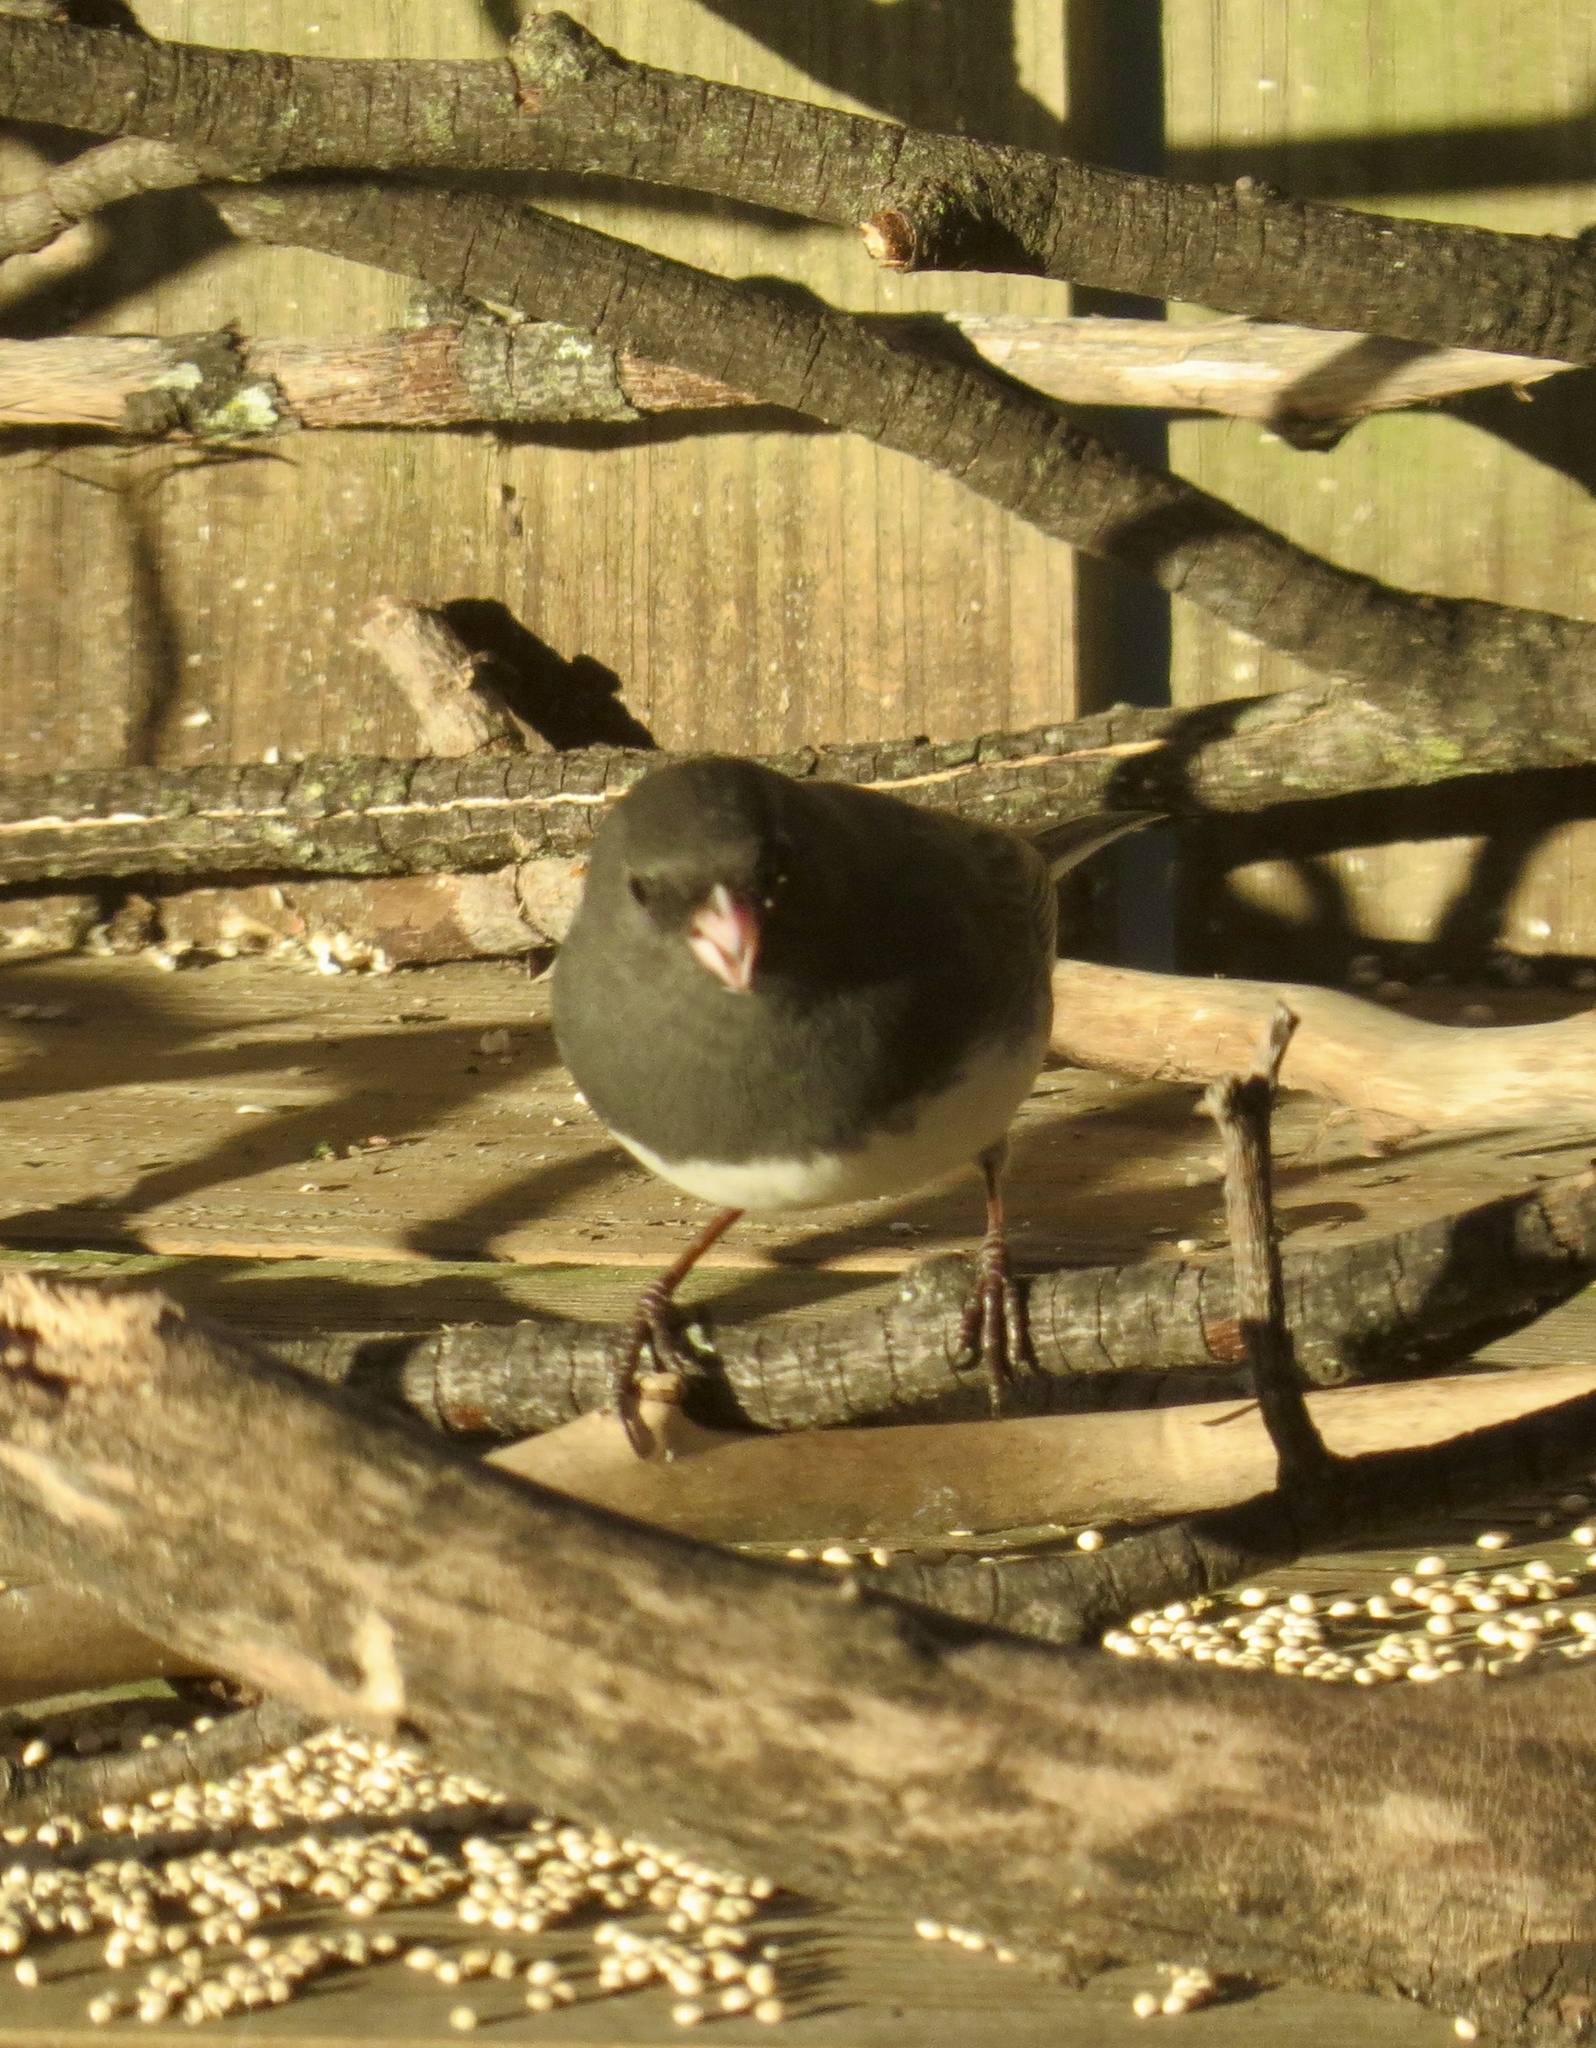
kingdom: Animalia
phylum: Chordata
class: Aves
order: Passeriformes
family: Passerellidae
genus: Junco
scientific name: Junco hyemalis
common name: Dark-eyed junco
